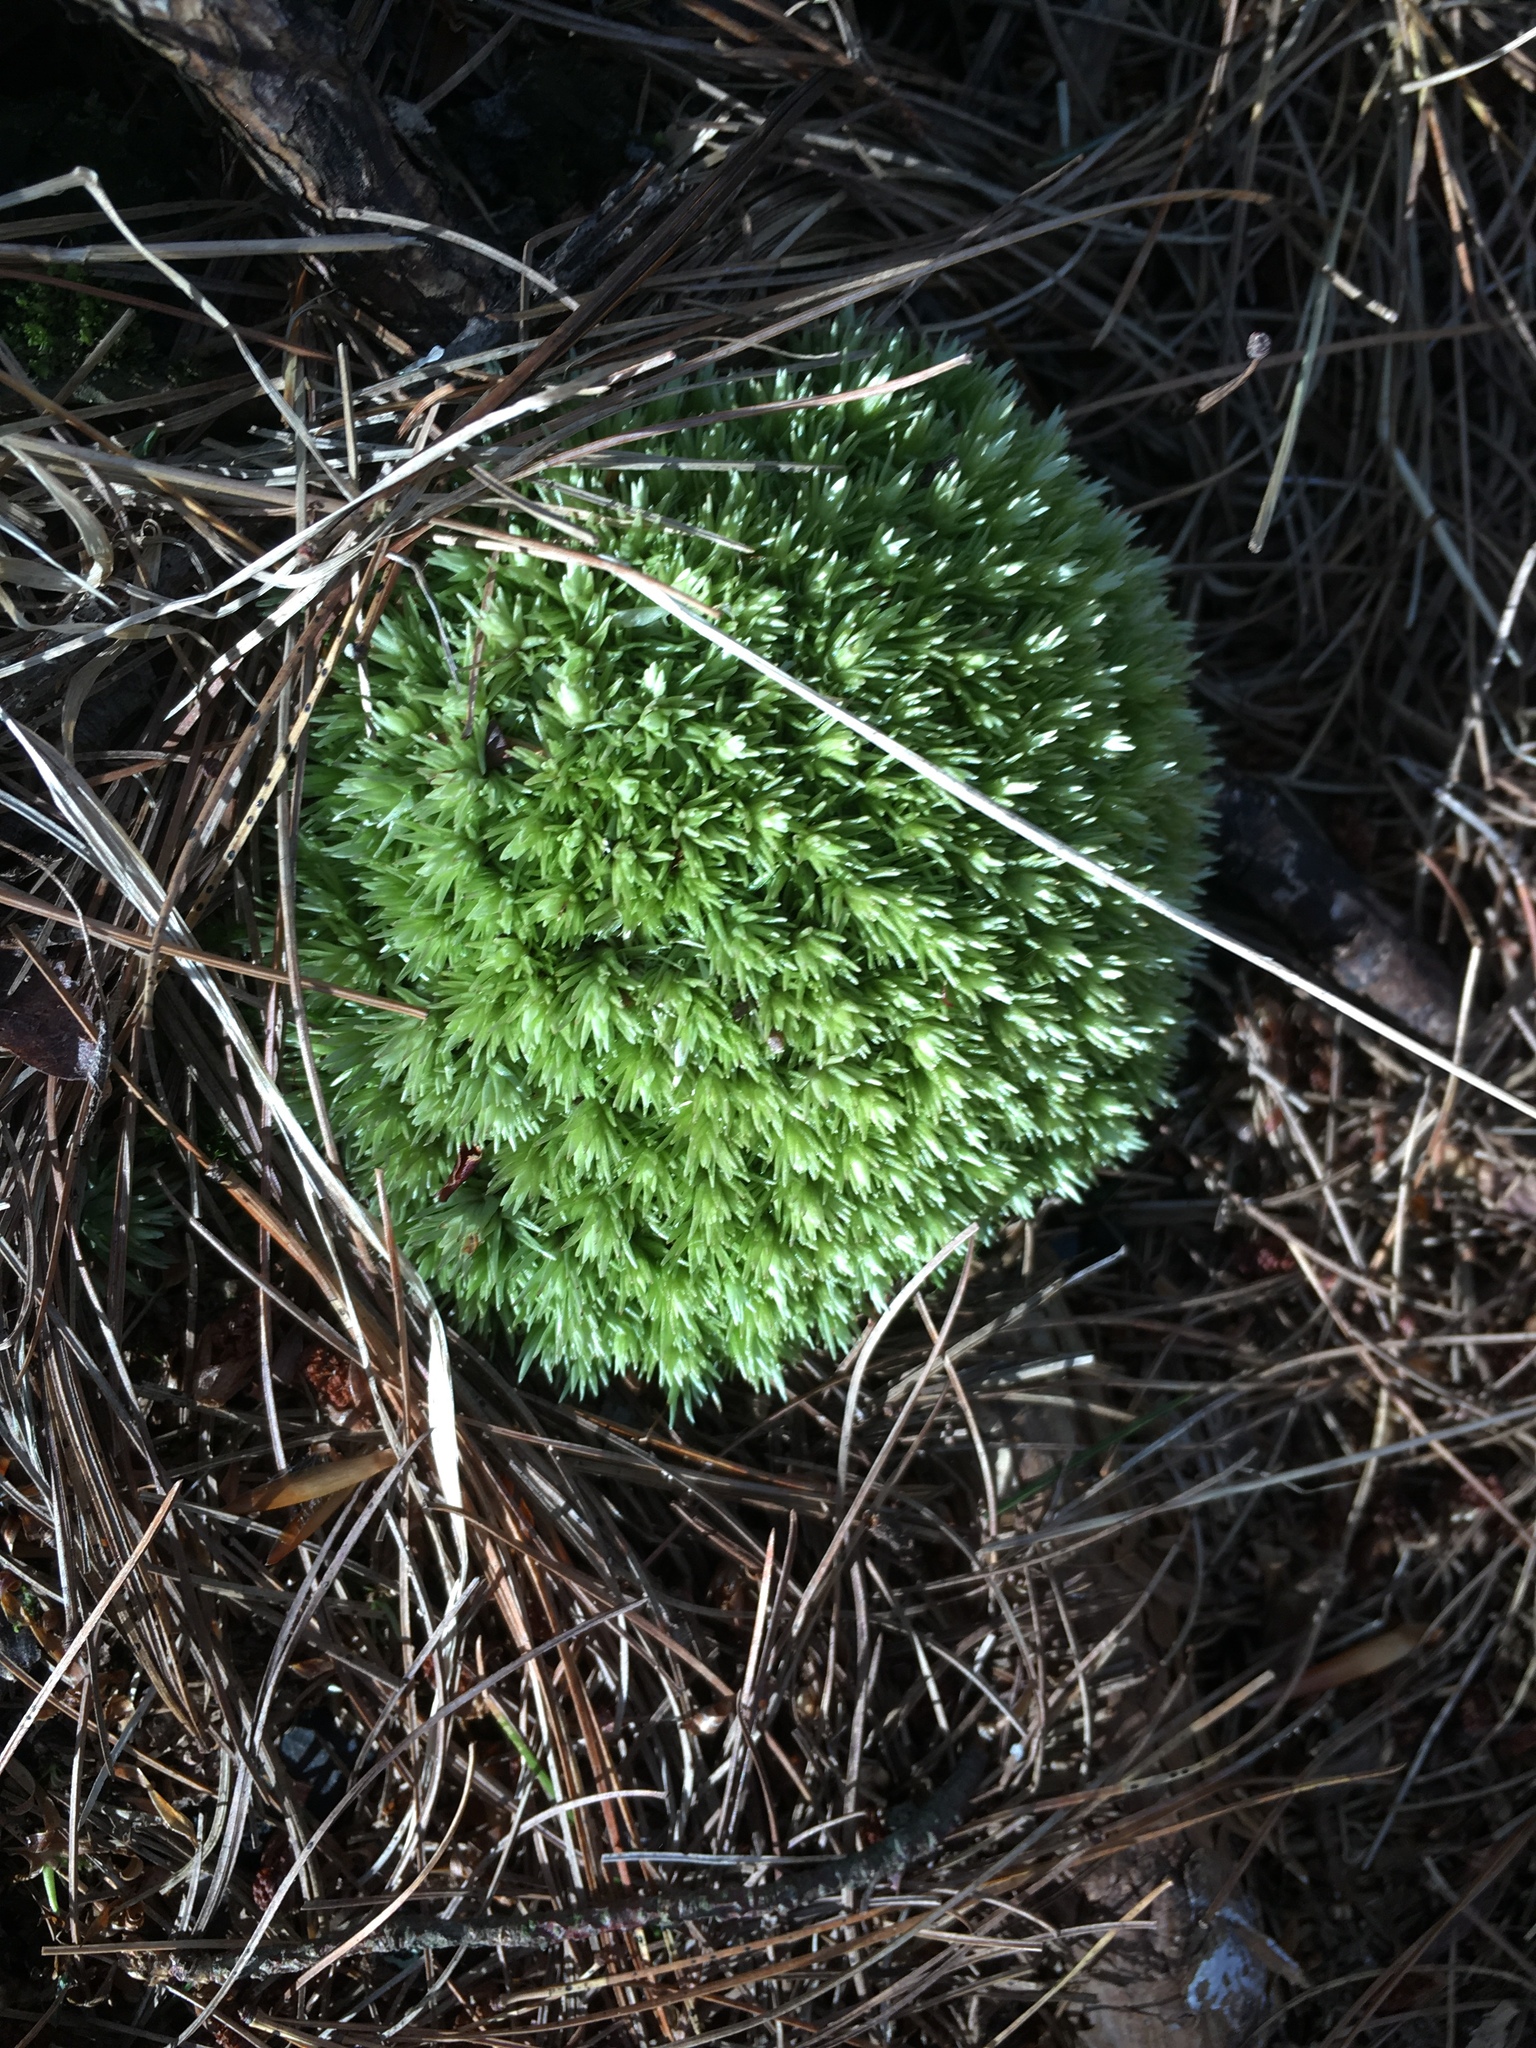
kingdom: Plantae
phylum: Bryophyta
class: Bryopsida
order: Dicranales
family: Leucobryaceae
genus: Leucobryum
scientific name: Leucobryum glaucum
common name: Large white-moss
